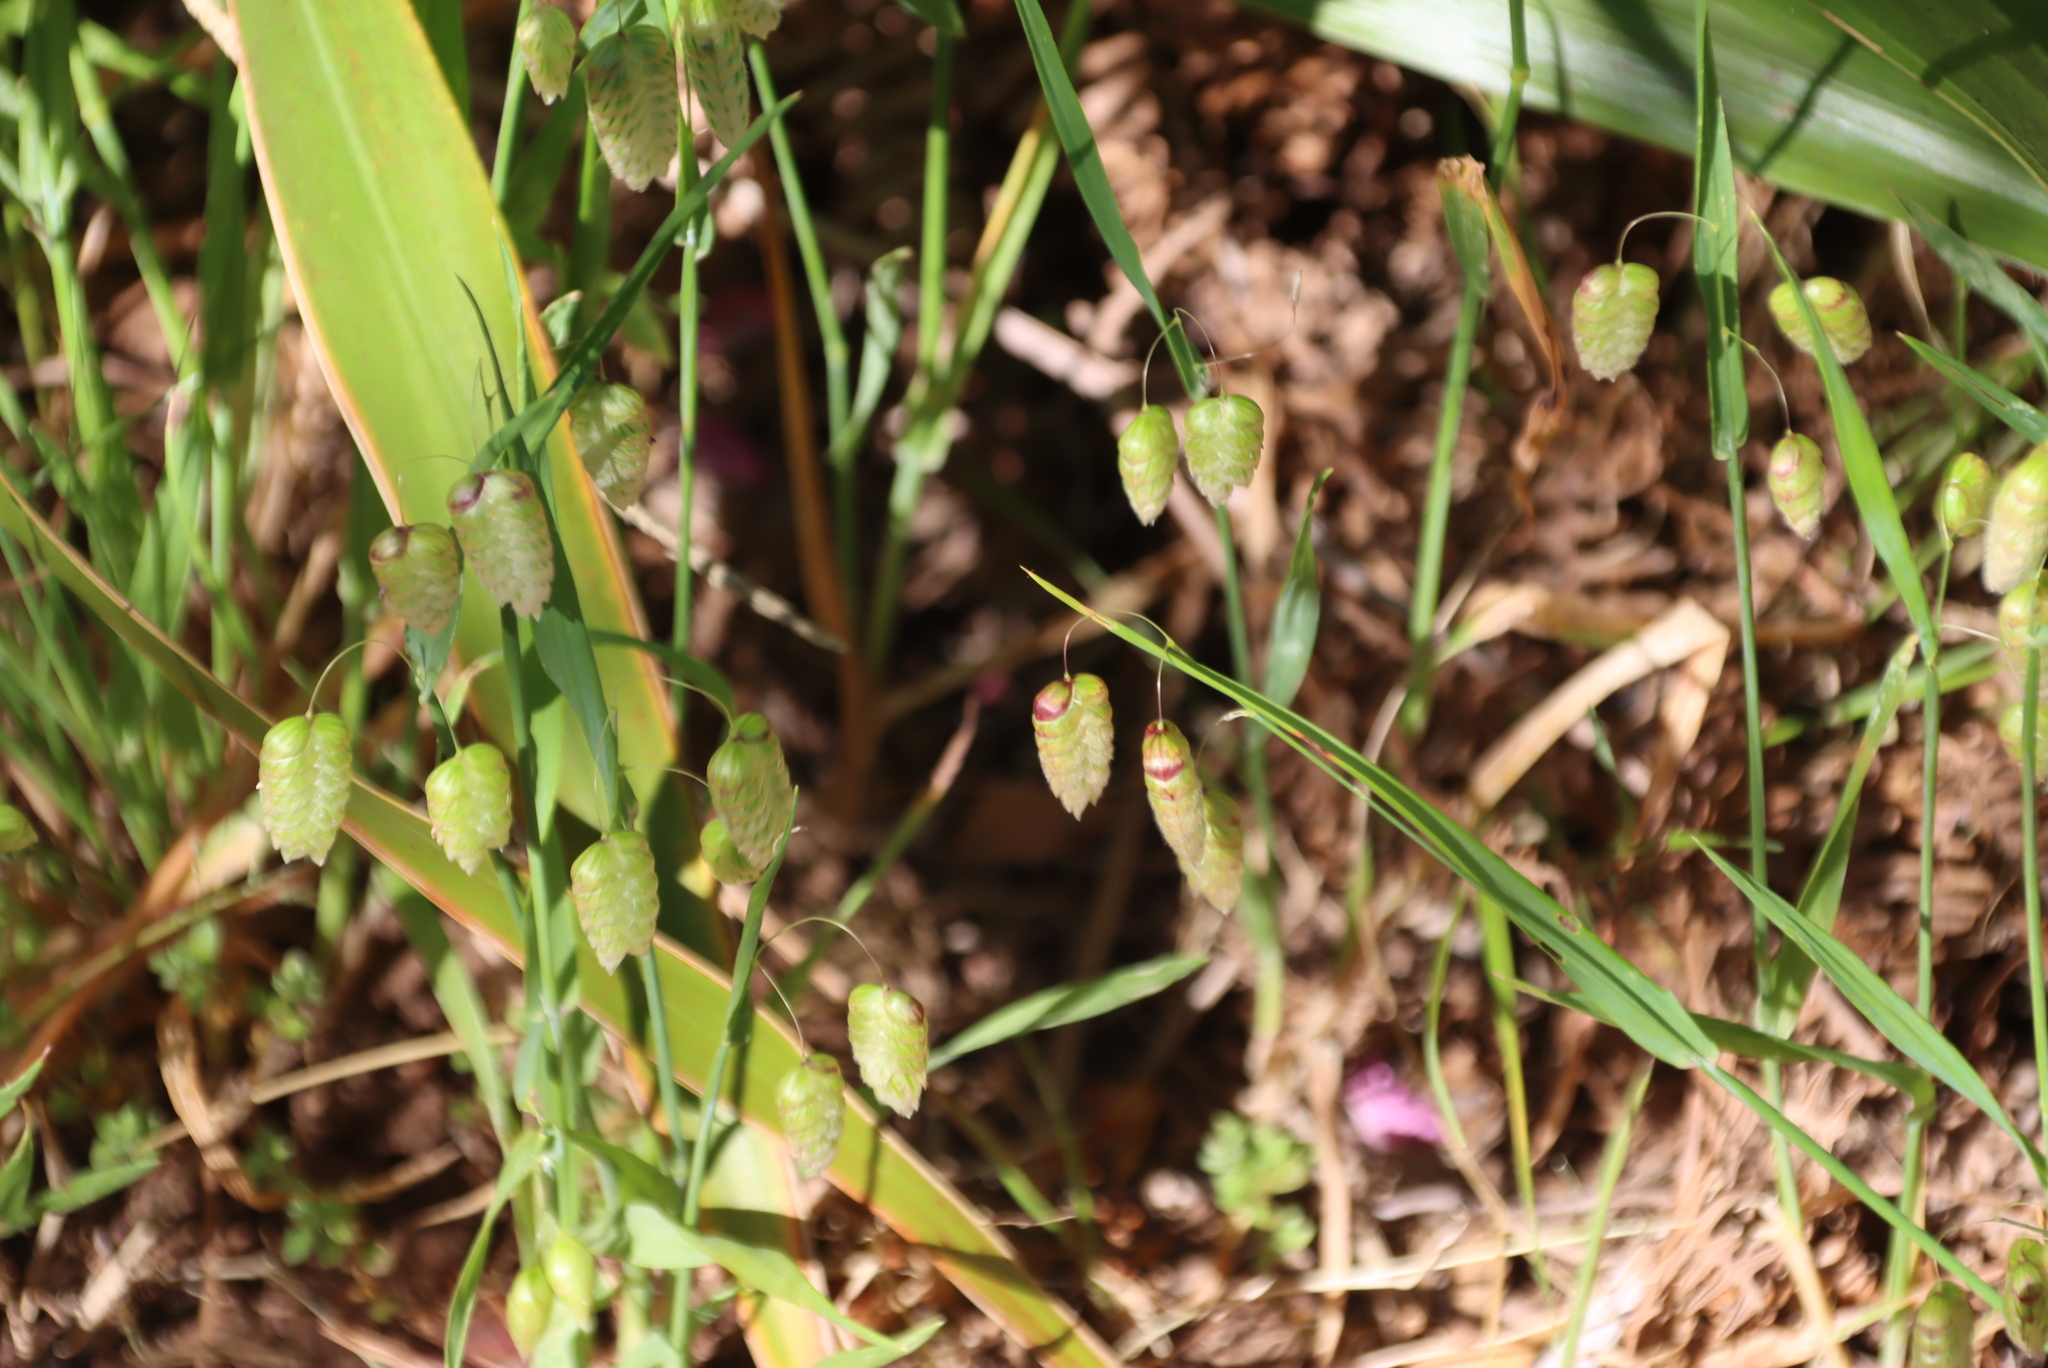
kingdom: Plantae
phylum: Tracheophyta
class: Liliopsida
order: Poales
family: Poaceae
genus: Briza
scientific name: Briza maxima
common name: Big quakinggrass
